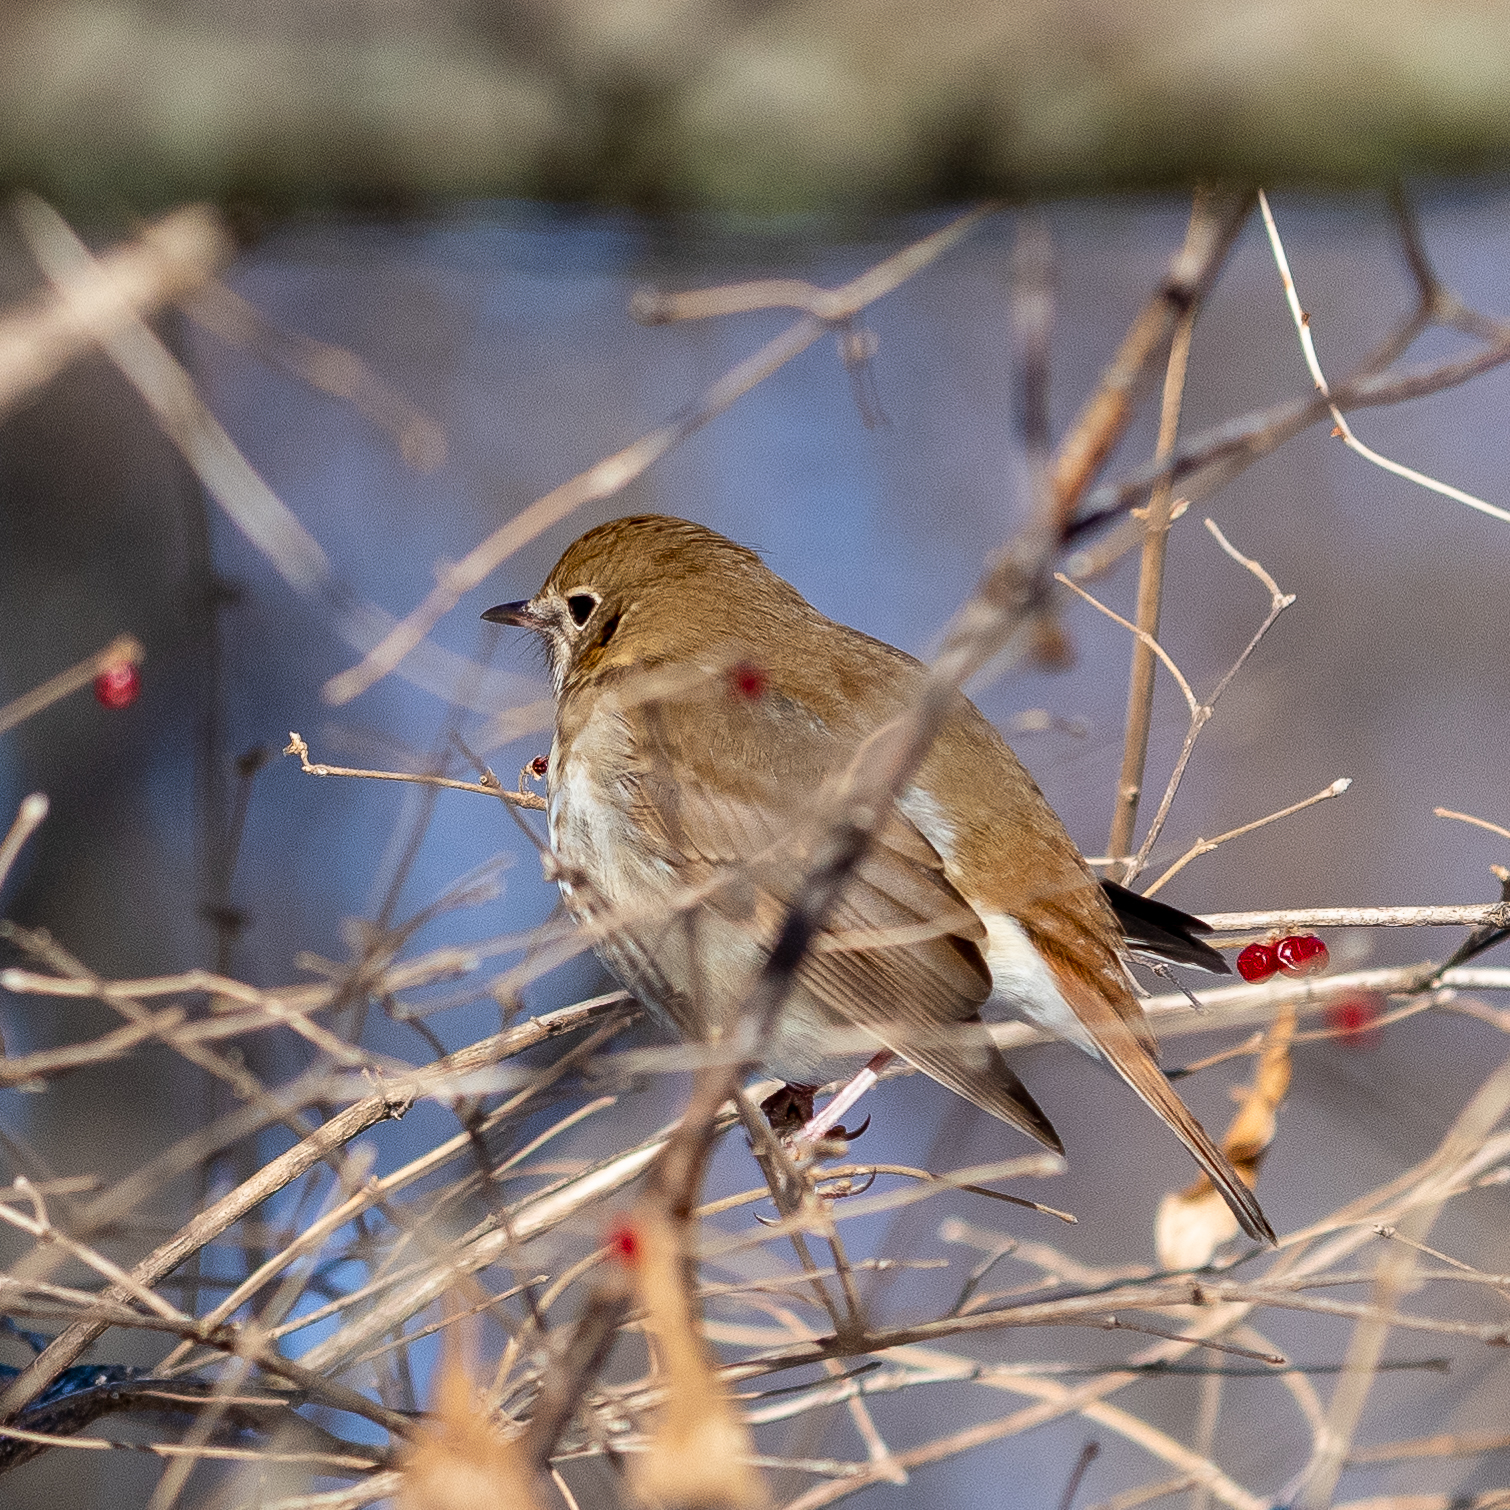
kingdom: Animalia
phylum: Chordata
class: Aves
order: Passeriformes
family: Turdidae
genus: Catharus
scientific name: Catharus guttatus
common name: Hermit thrush
